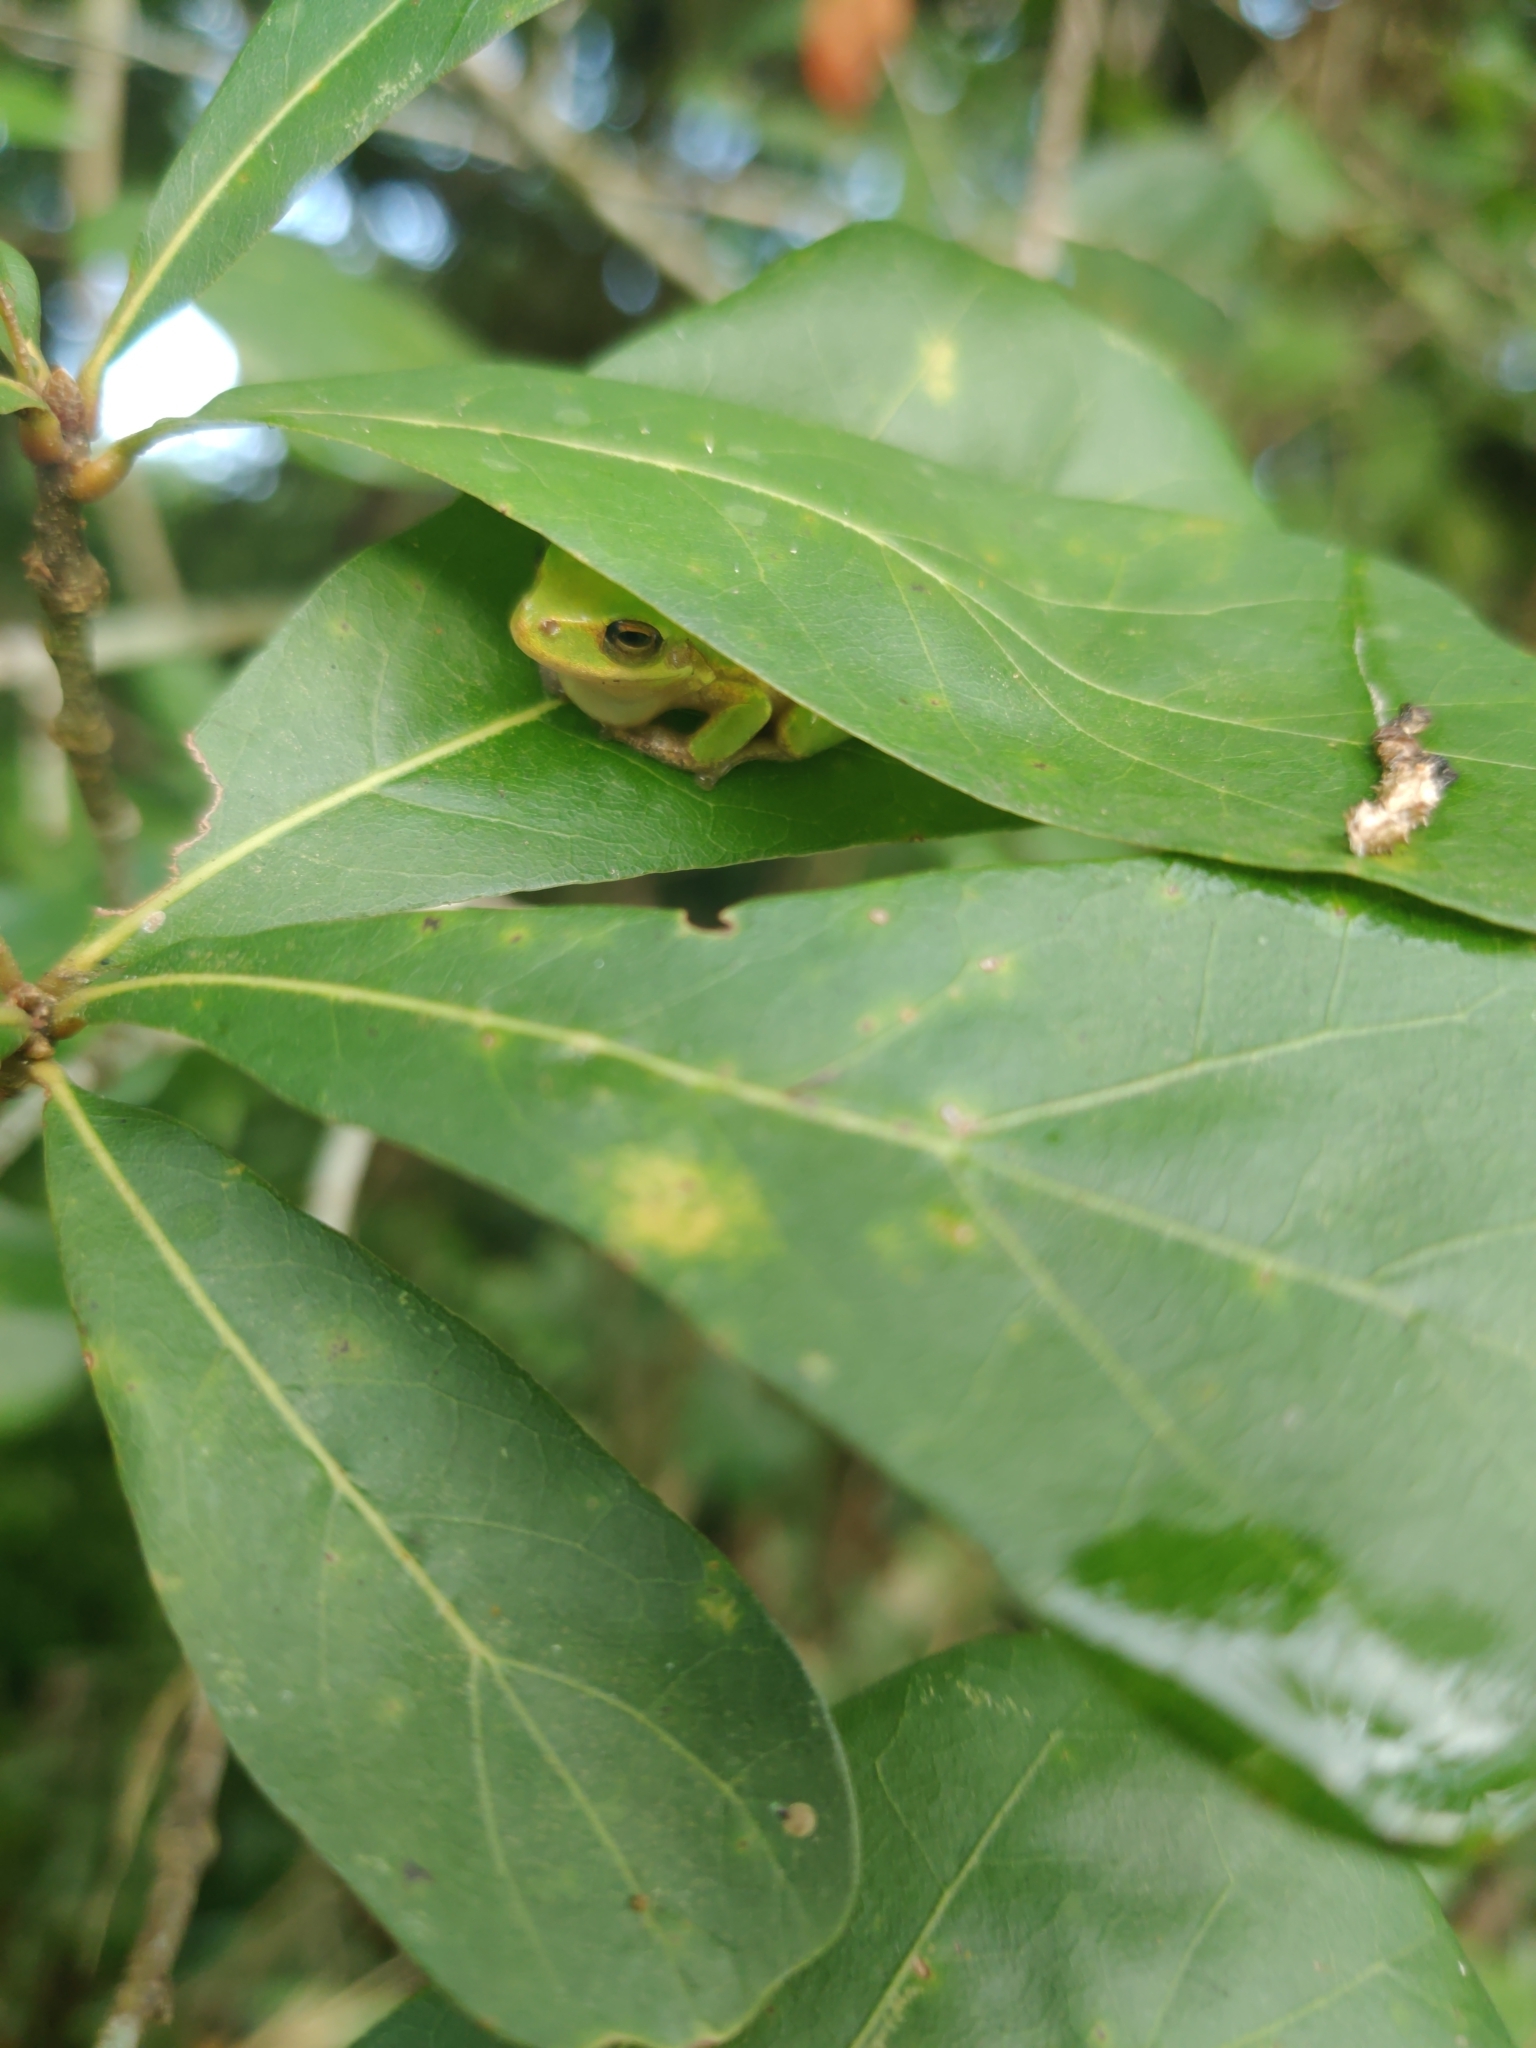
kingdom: Animalia
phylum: Chordata
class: Amphibia
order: Anura
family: Hylidae
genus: Dryophytes
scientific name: Dryophytes squirellus
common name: Squirrel treefrog
